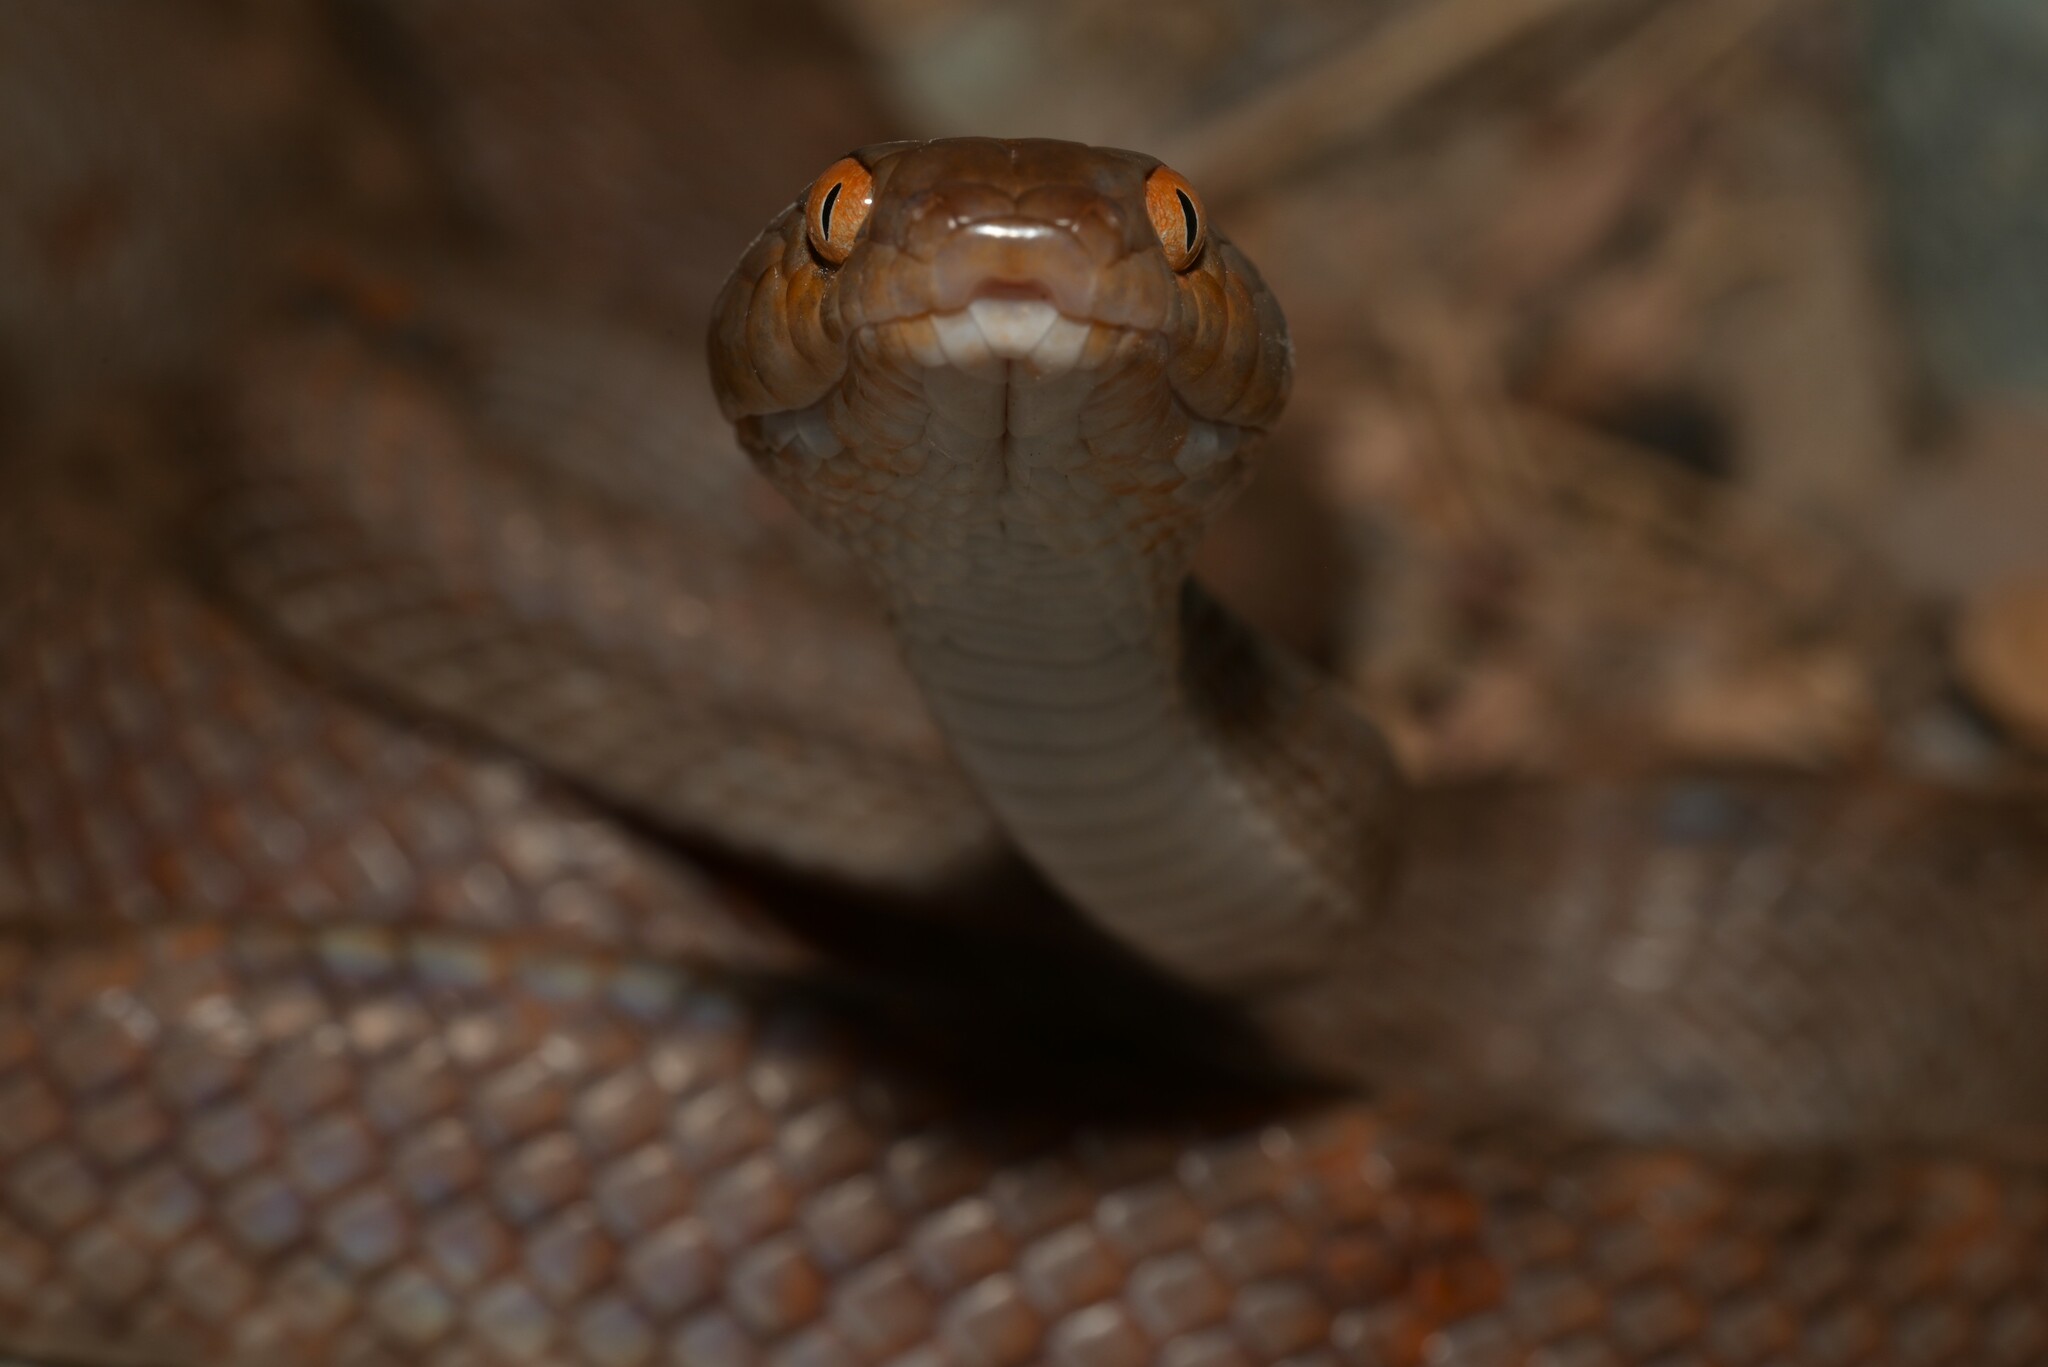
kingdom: Animalia
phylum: Chordata
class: Squamata
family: Colubridae
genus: Telescopus
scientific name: Telescopus dhara
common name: Arabian cat snake
